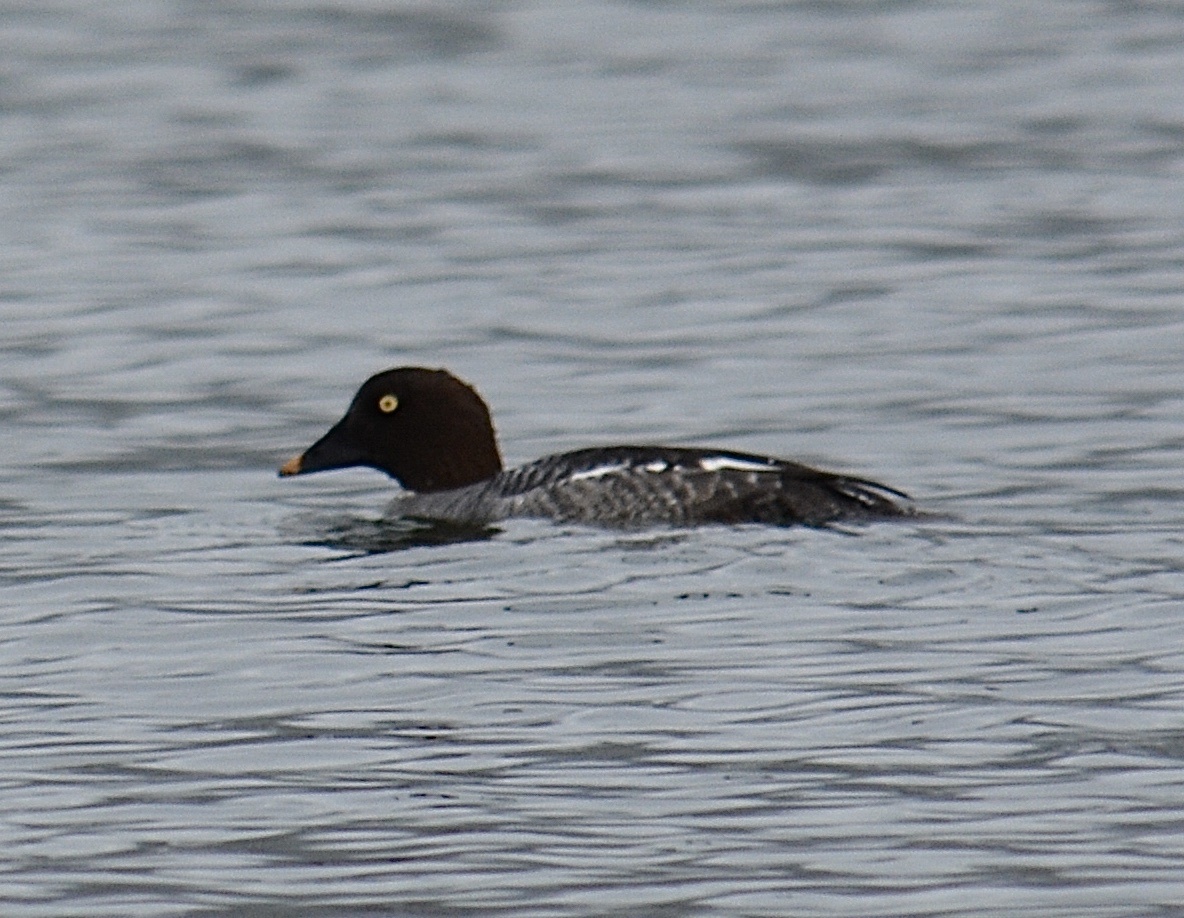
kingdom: Animalia
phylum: Chordata
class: Aves
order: Anseriformes
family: Anatidae
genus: Bucephala
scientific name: Bucephala clangula
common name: Common goldeneye
